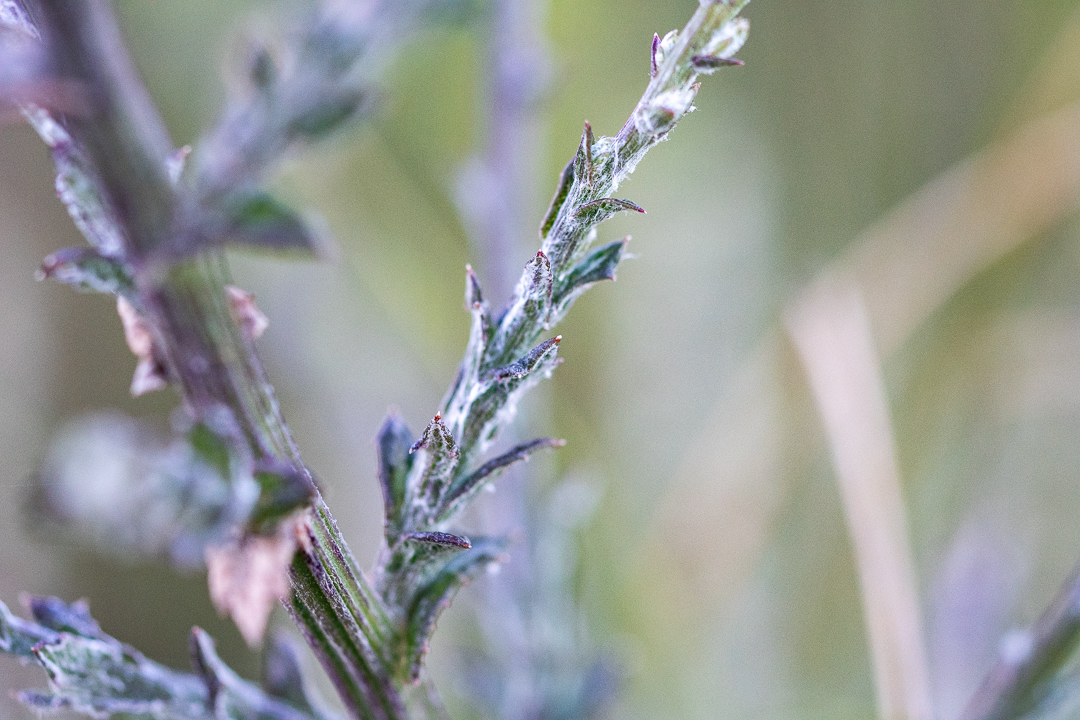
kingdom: Plantae
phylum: Tracheophyta
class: Magnoliopsida
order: Asterales
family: Asteraceae
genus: Senecio
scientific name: Senecio pubigerus
